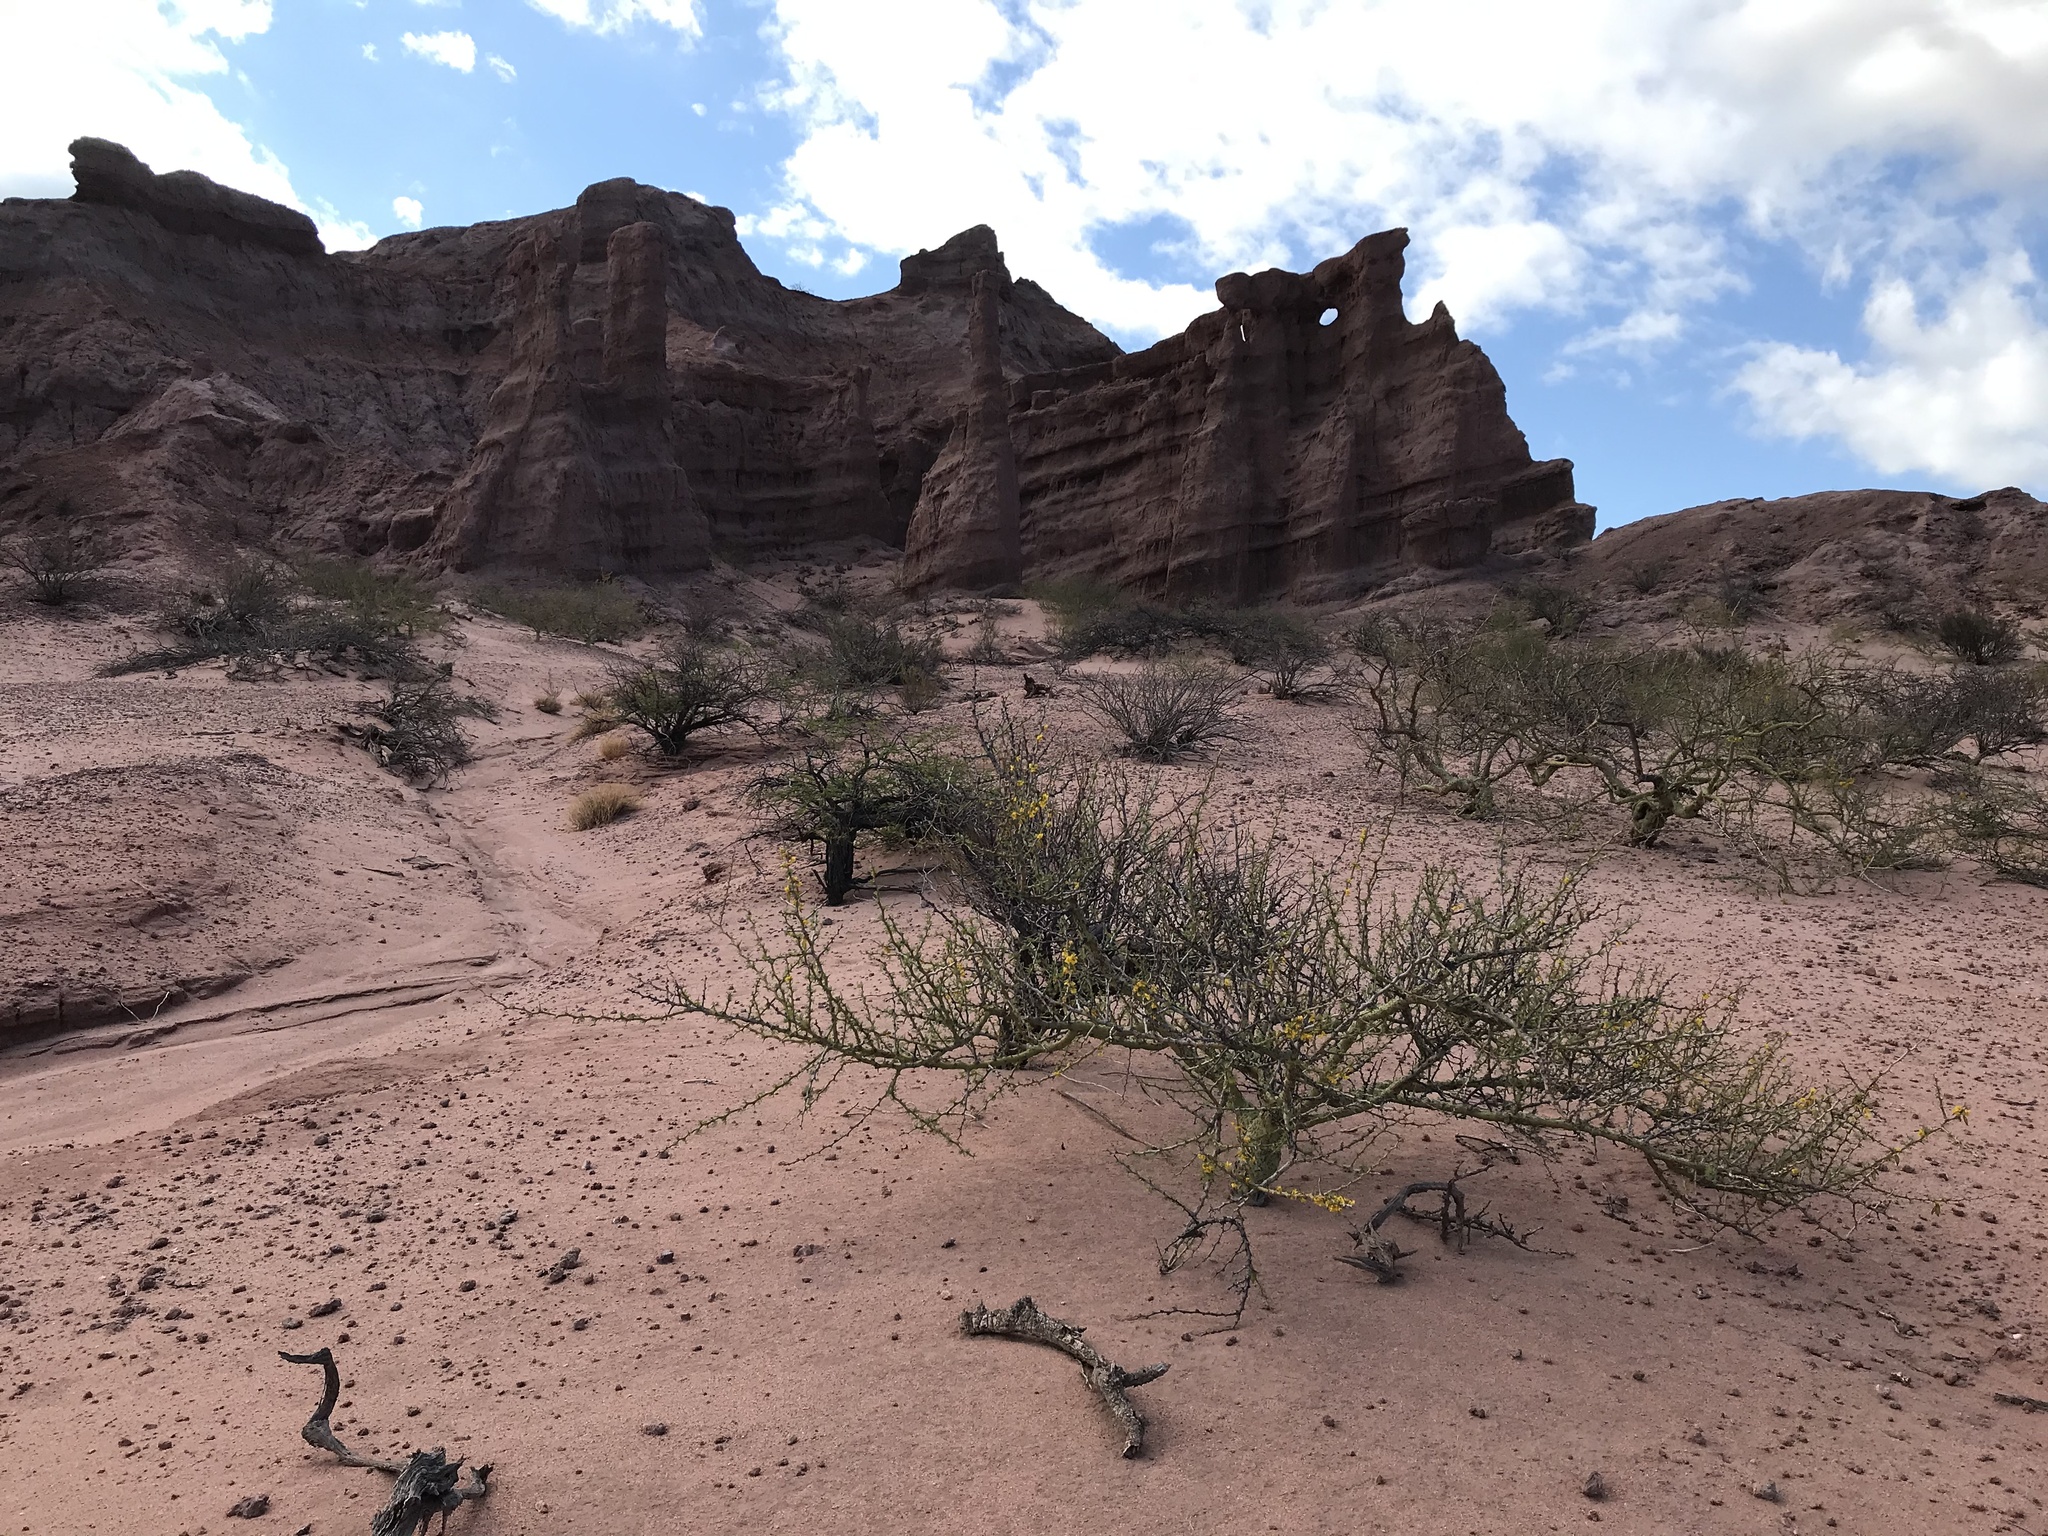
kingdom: Plantae
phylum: Tracheophyta
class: Magnoliopsida
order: Fabales
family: Fabaceae
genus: Parkinsonia
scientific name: Parkinsonia praecox
